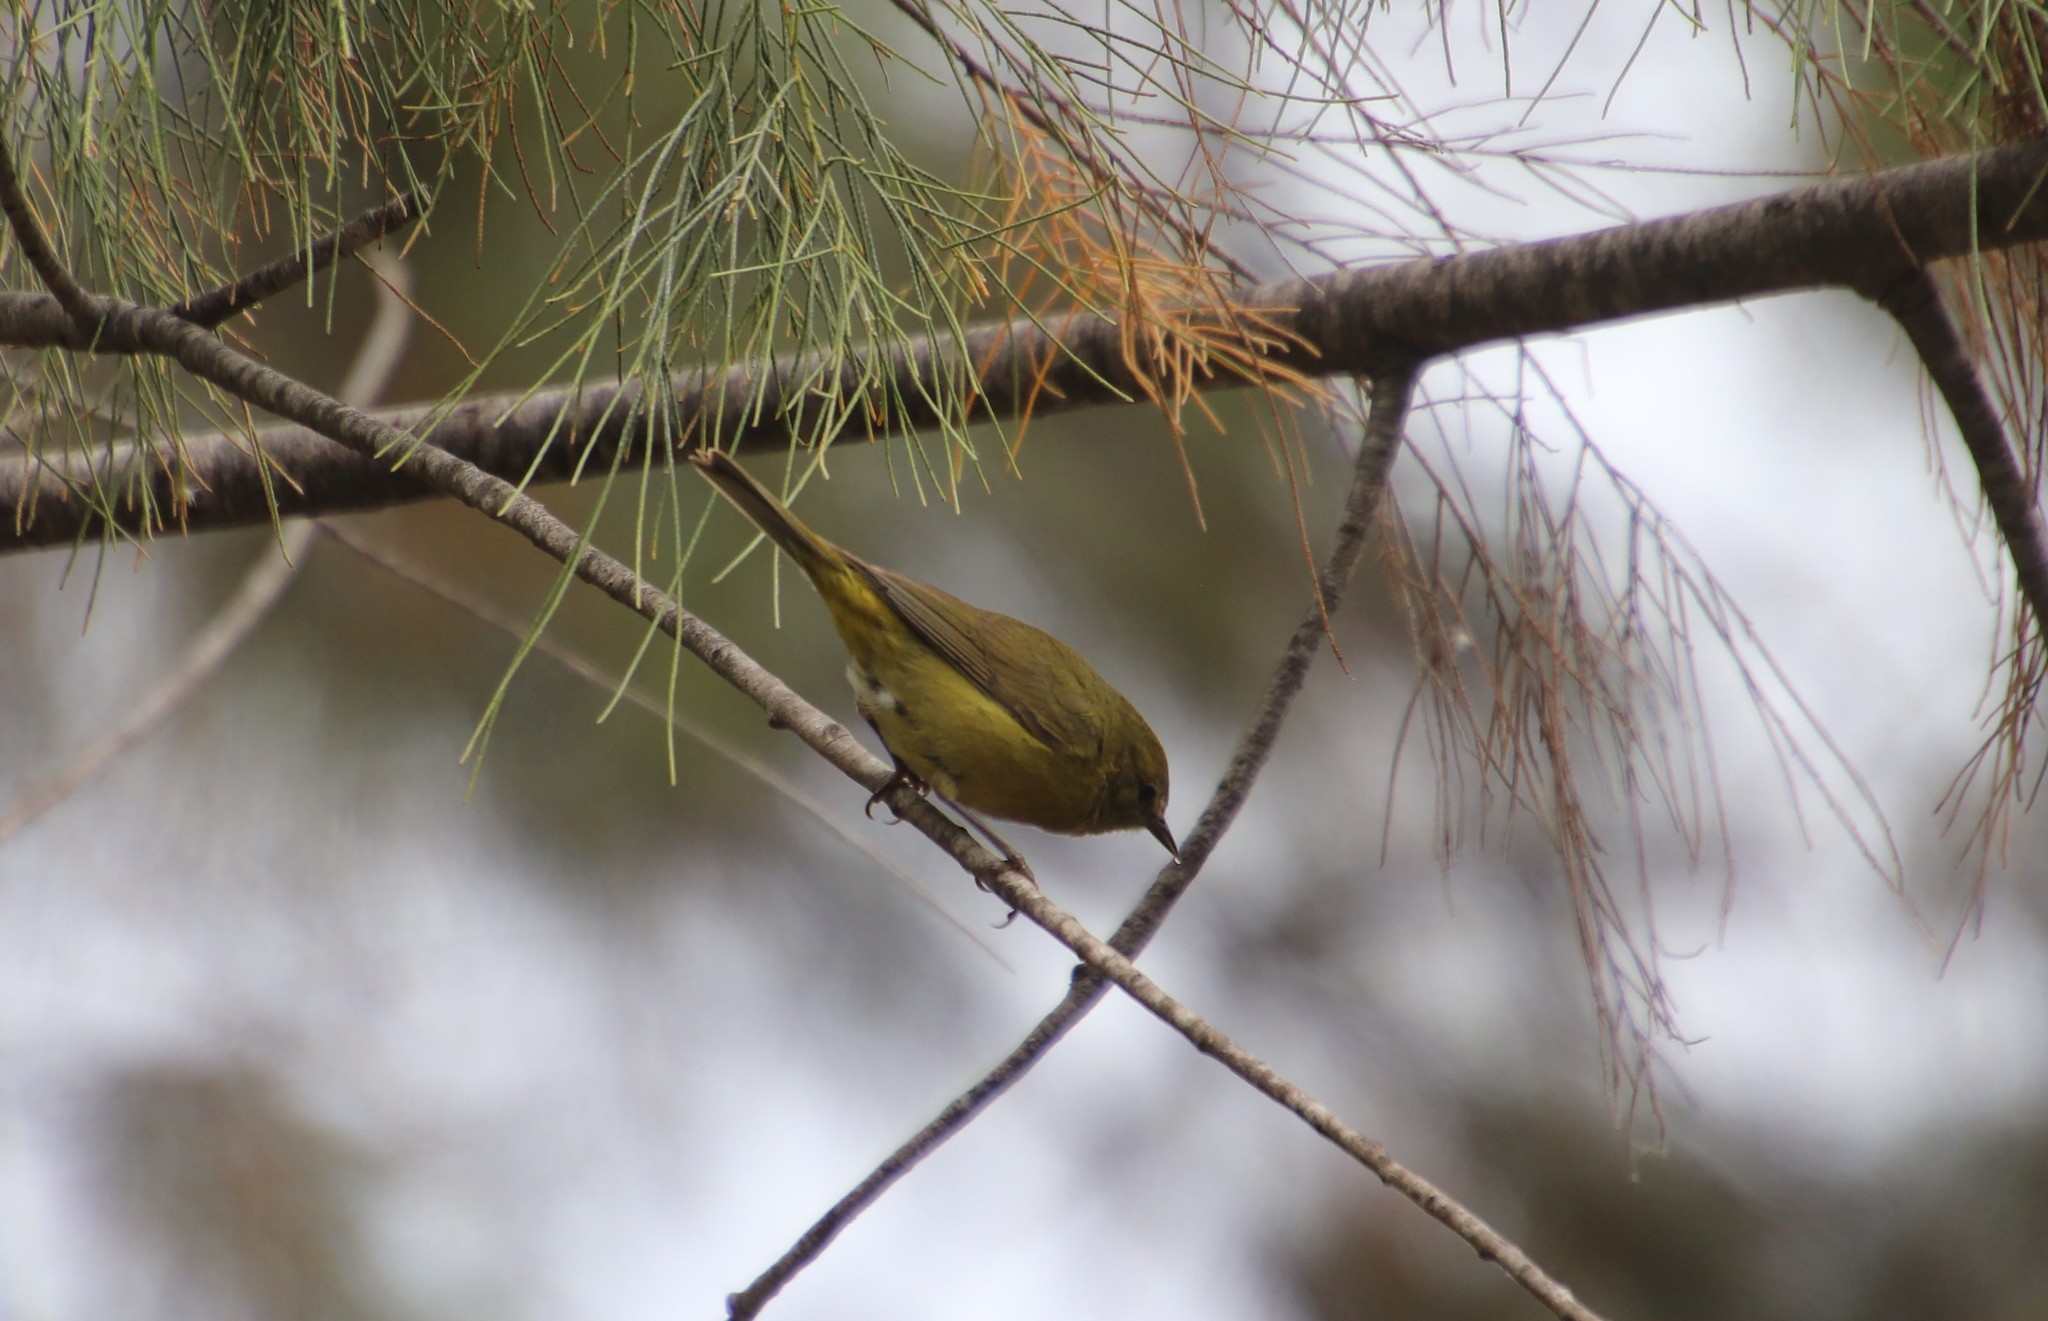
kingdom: Animalia
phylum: Chordata
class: Aves
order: Passeriformes
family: Parulidae
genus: Leiothlypis
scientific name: Leiothlypis celata
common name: Orange-crowned warbler
